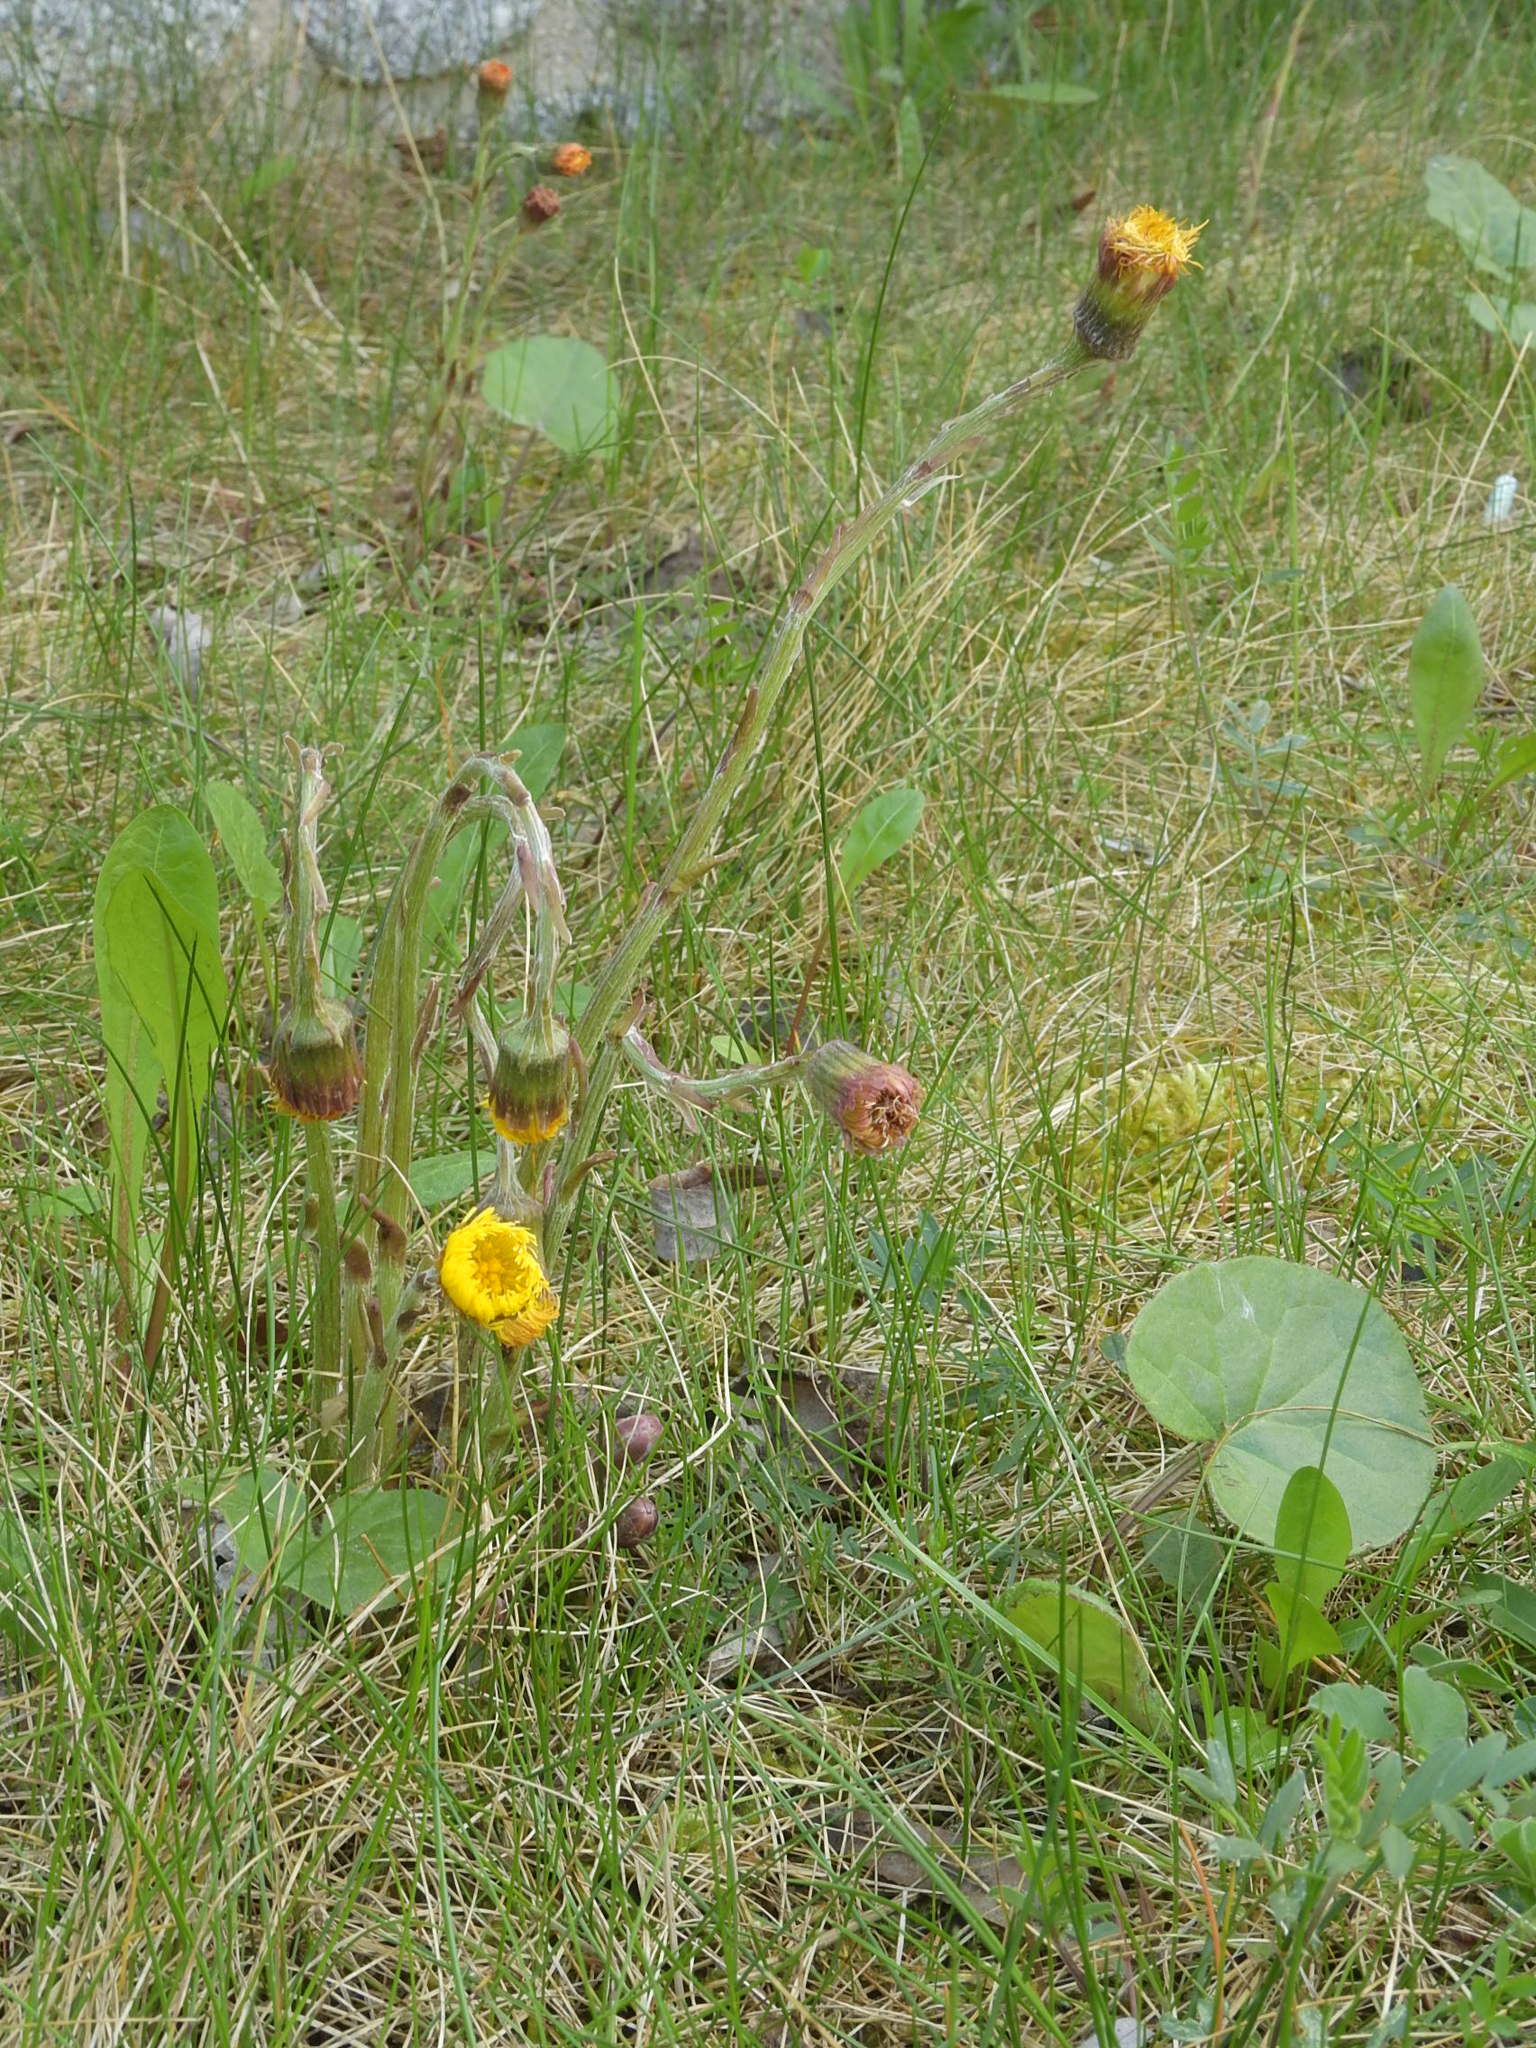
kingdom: Plantae
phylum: Tracheophyta
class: Magnoliopsida
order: Asterales
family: Asteraceae
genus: Tussilago
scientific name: Tussilago farfara
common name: Coltsfoot
